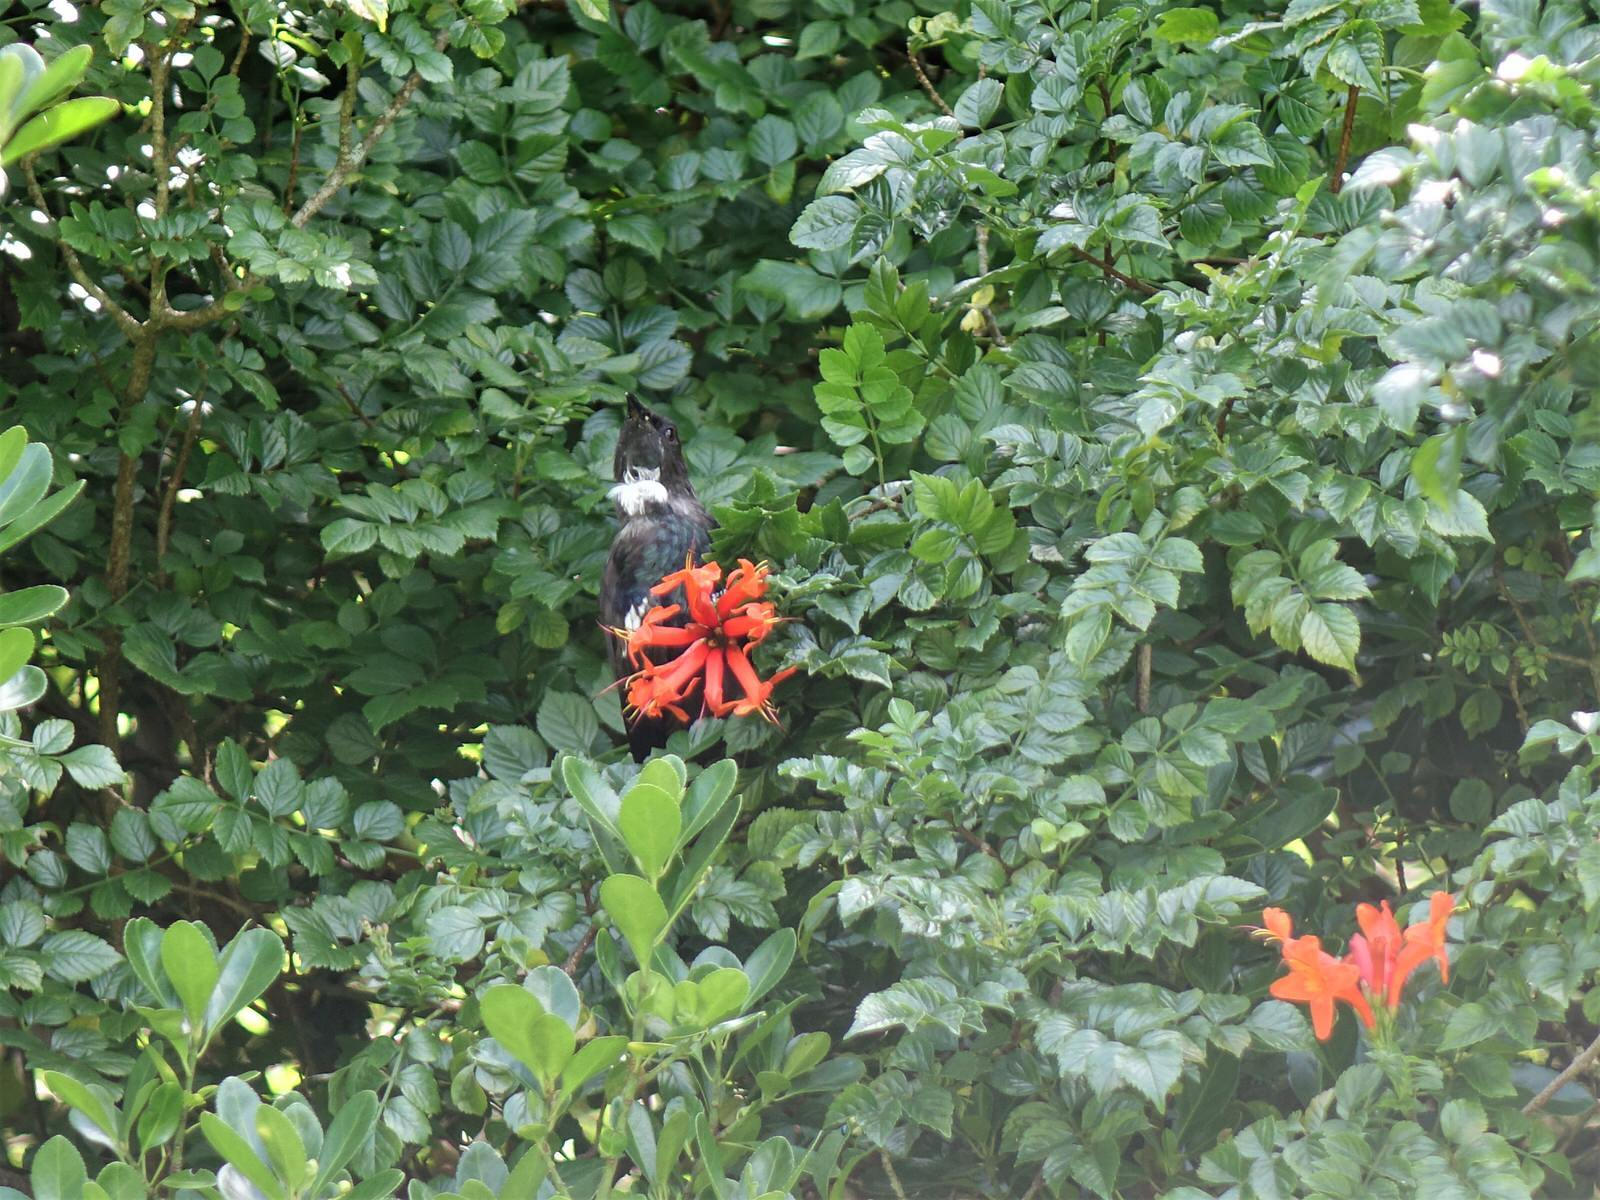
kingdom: Animalia
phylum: Chordata
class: Aves
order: Passeriformes
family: Meliphagidae
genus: Prosthemadera
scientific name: Prosthemadera novaeseelandiae
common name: Tui
